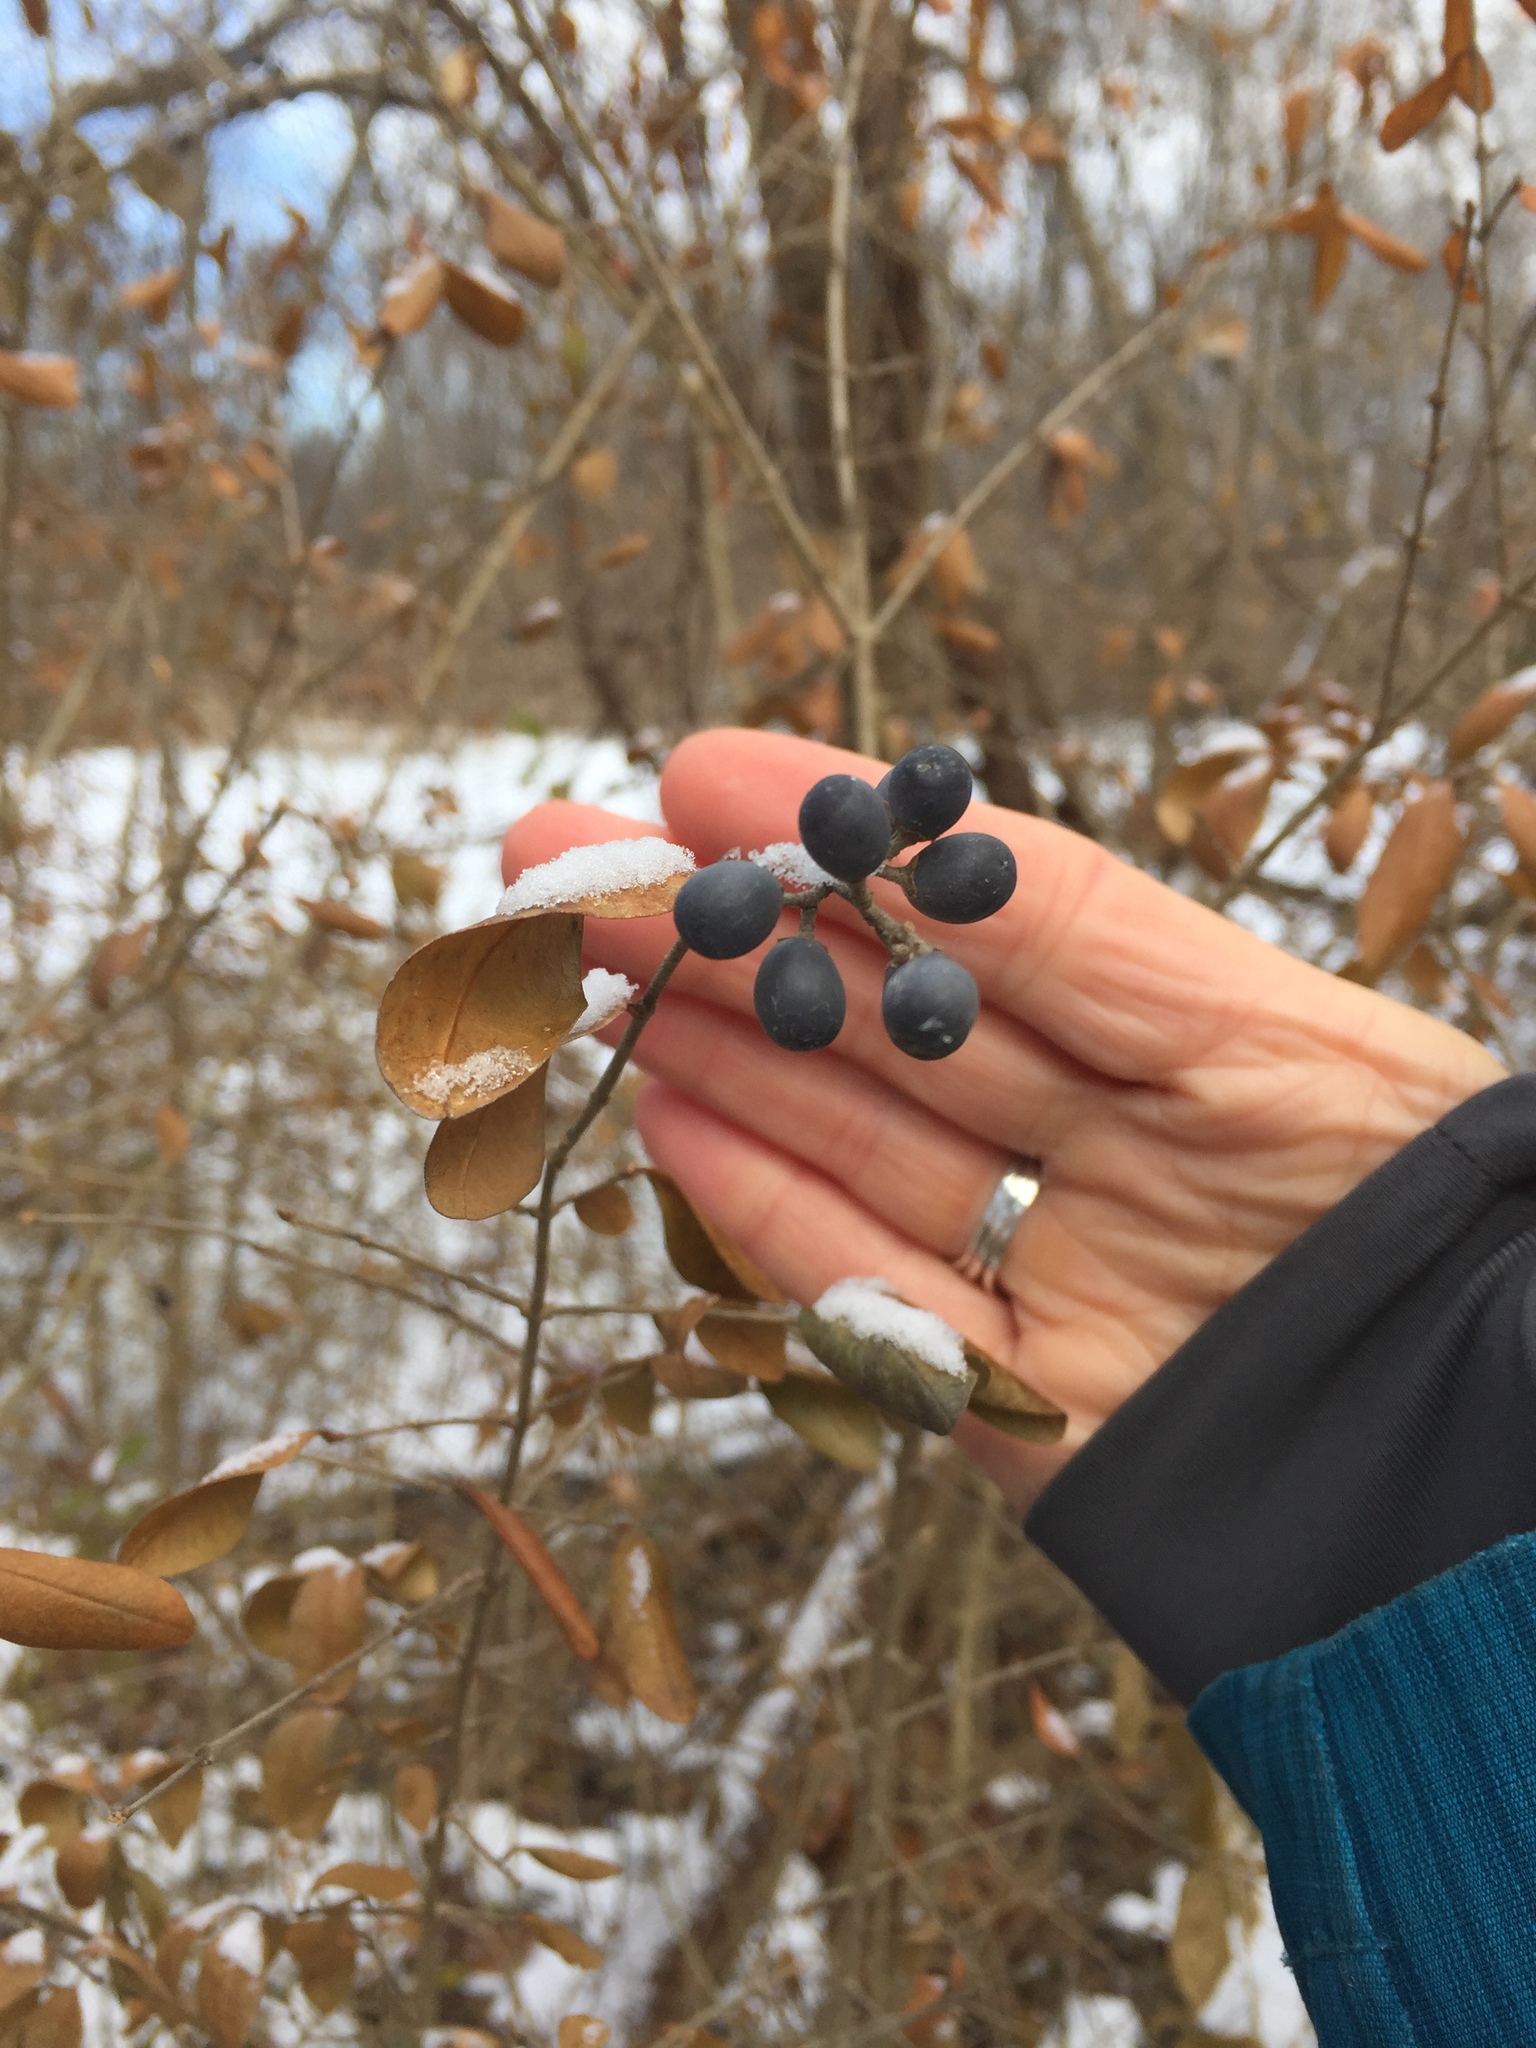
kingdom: Plantae
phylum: Tracheophyta
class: Magnoliopsida
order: Lamiales
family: Oleaceae
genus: Ligustrum
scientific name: Ligustrum obtusifolium
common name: Border privet
